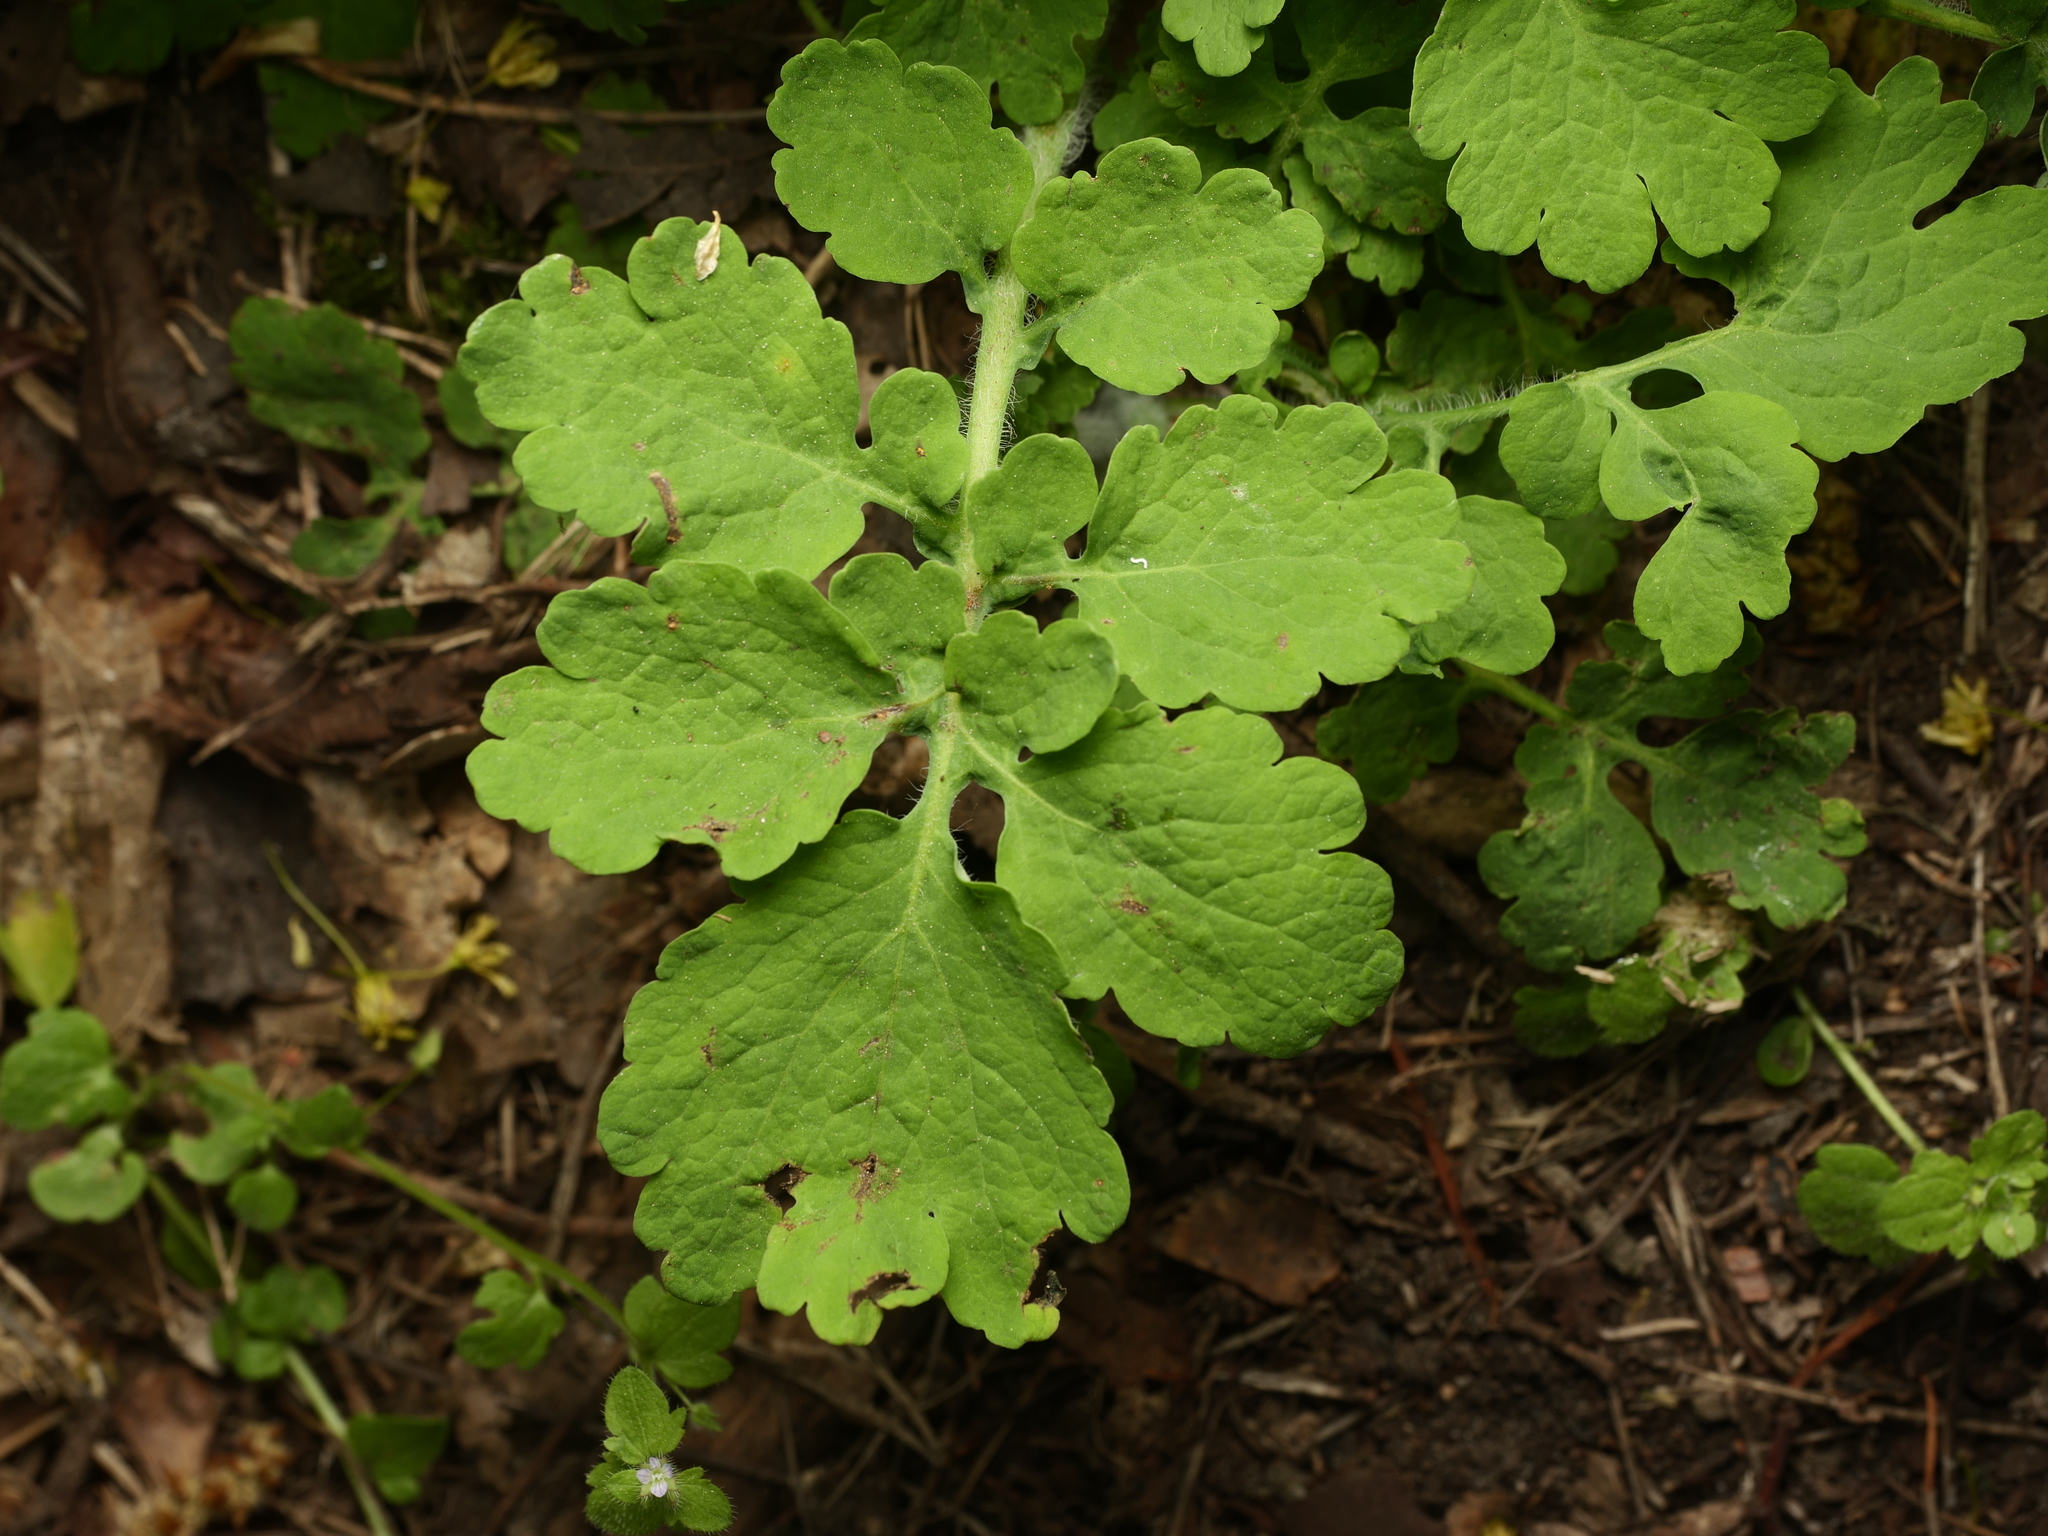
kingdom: Plantae
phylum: Tracheophyta
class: Magnoliopsida
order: Ranunculales
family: Papaveraceae
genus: Chelidonium
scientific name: Chelidonium majus
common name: Greater celandine
